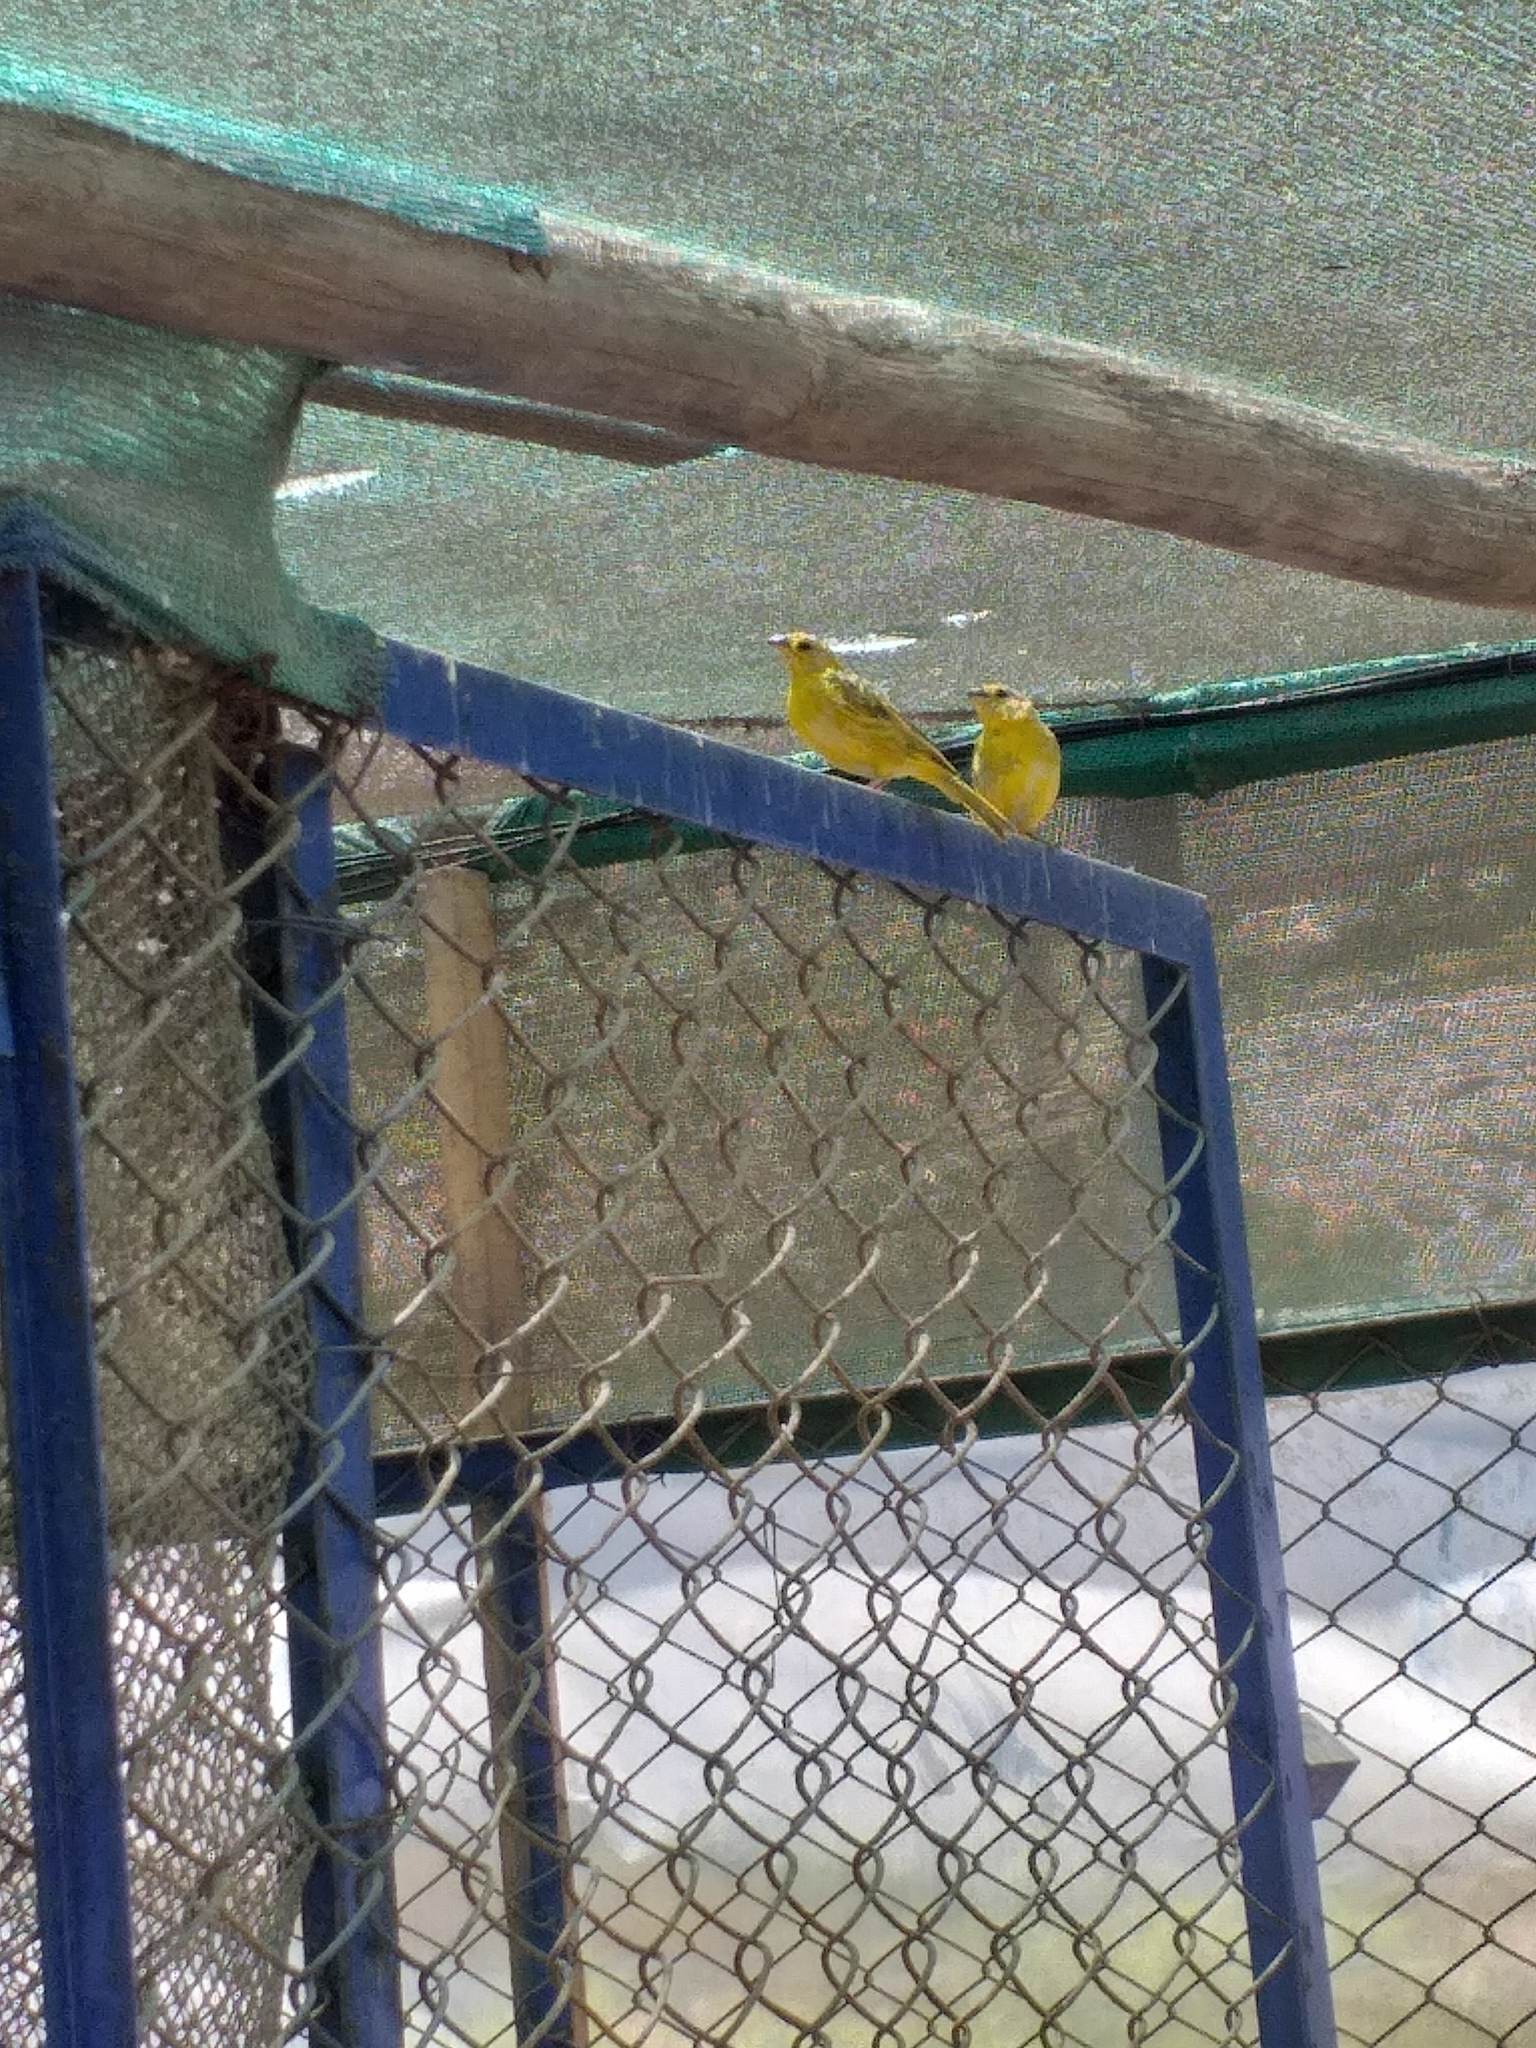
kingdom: Animalia
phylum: Chordata
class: Aves
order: Passeriformes
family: Thraupidae
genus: Sicalis
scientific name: Sicalis flaveola
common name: Saffron finch
